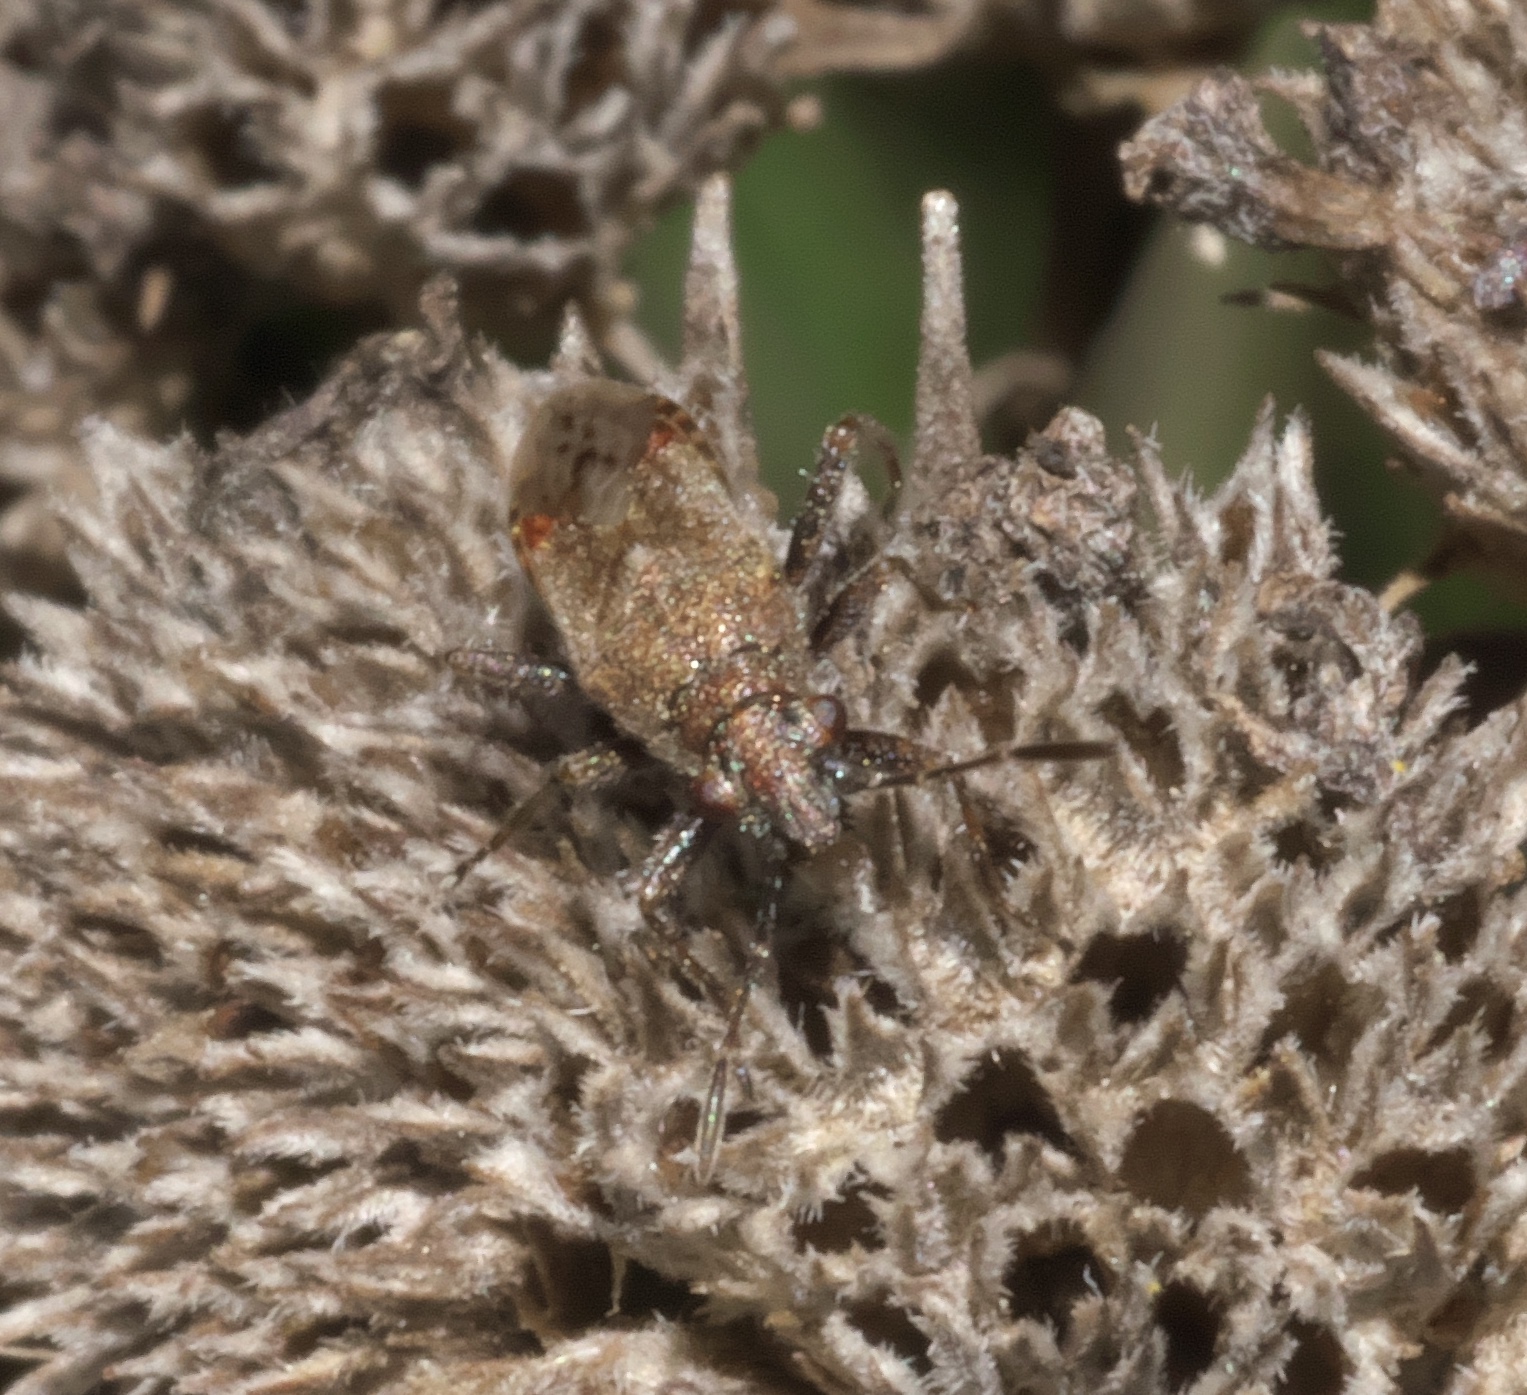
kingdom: Animalia
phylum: Arthropoda
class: Insecta
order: Hemiptera
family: Lygaeidae
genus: Neortholomus
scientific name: Neortholomus scolopax
